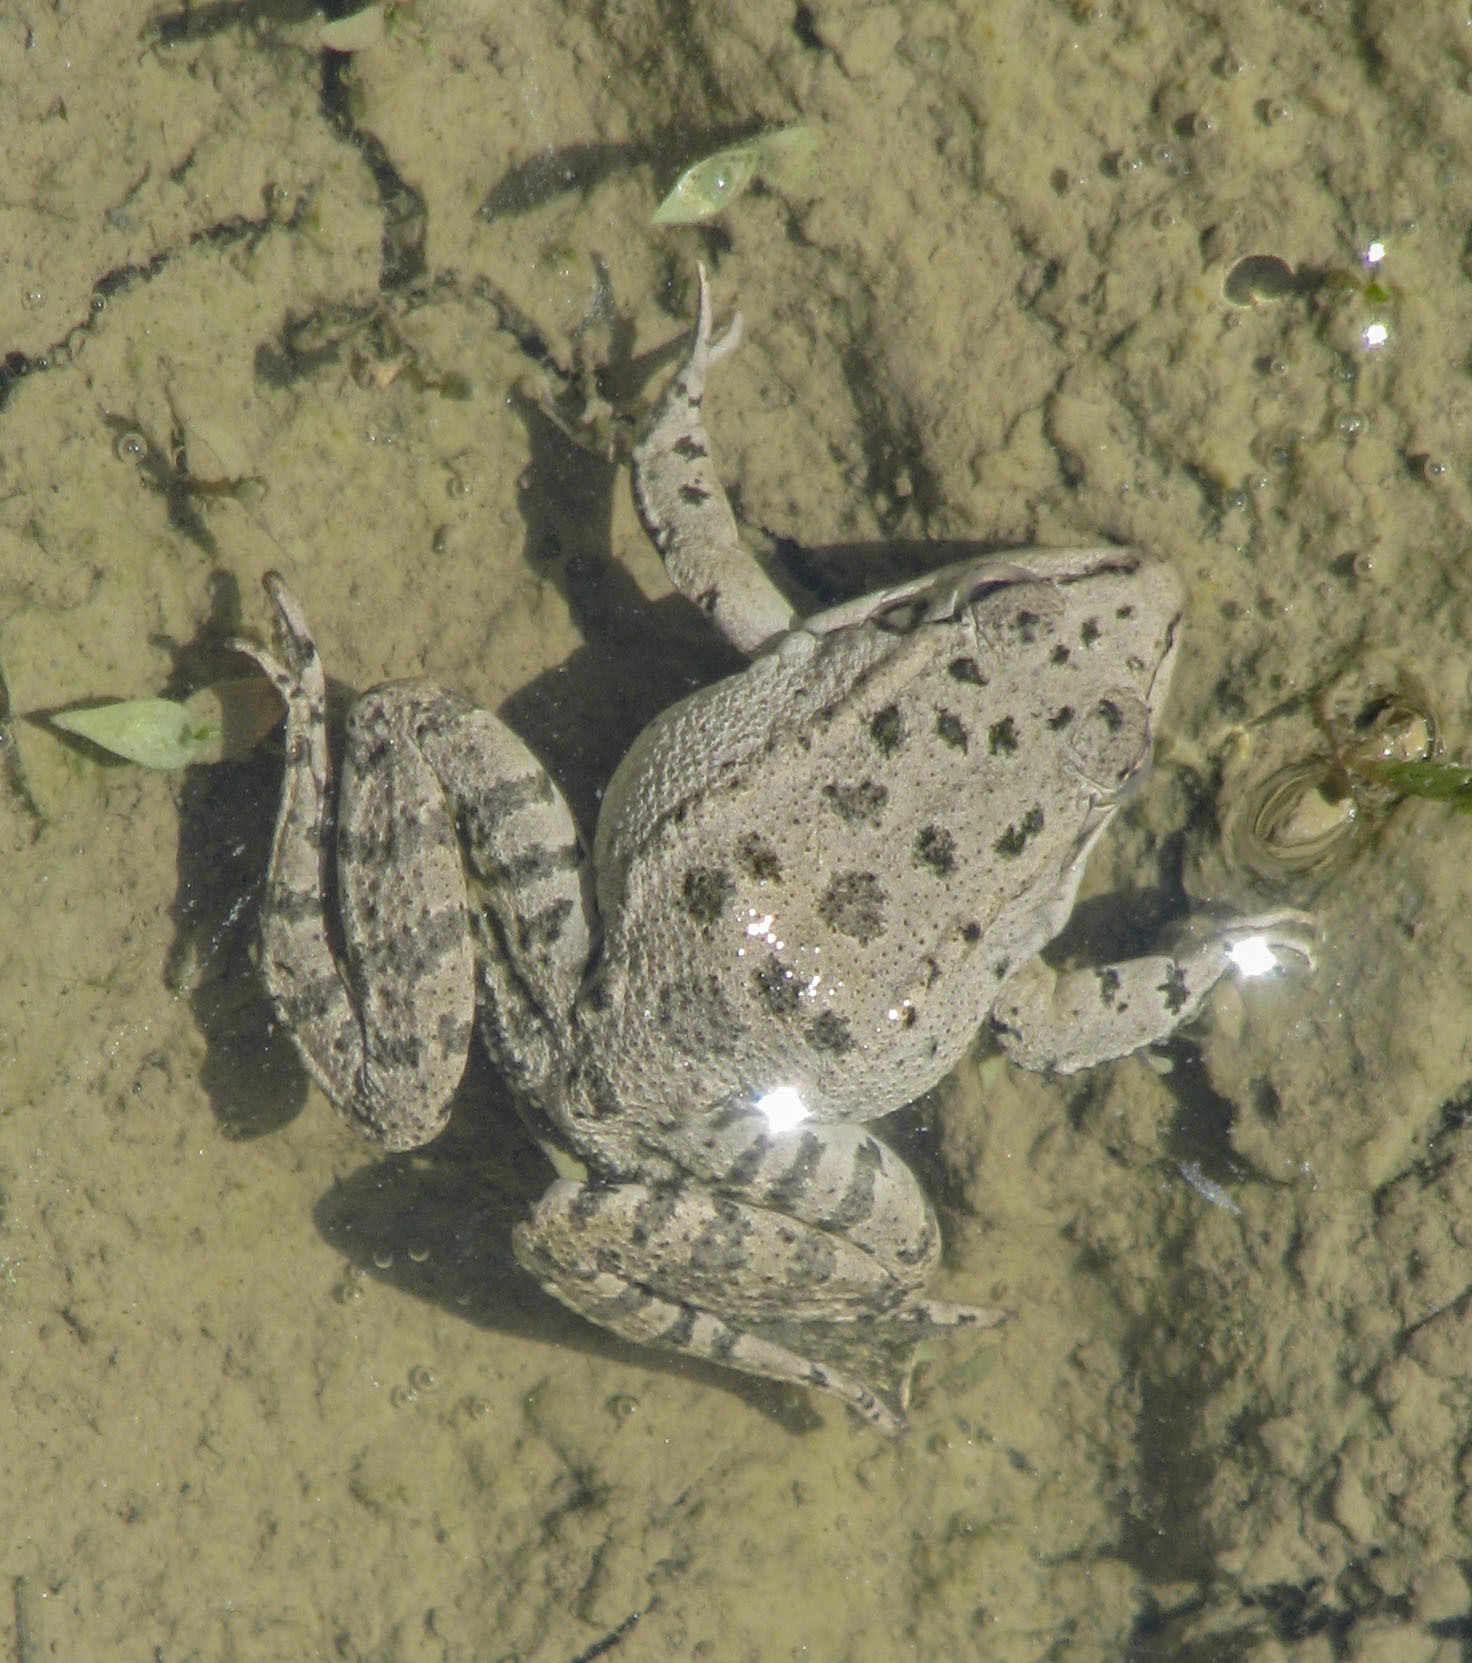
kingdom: Animalia
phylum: Chordata
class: Amphibia
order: Anura
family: Ranidae
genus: Pelophylax
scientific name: Pelophylax ridibundus
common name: Marsh frog
